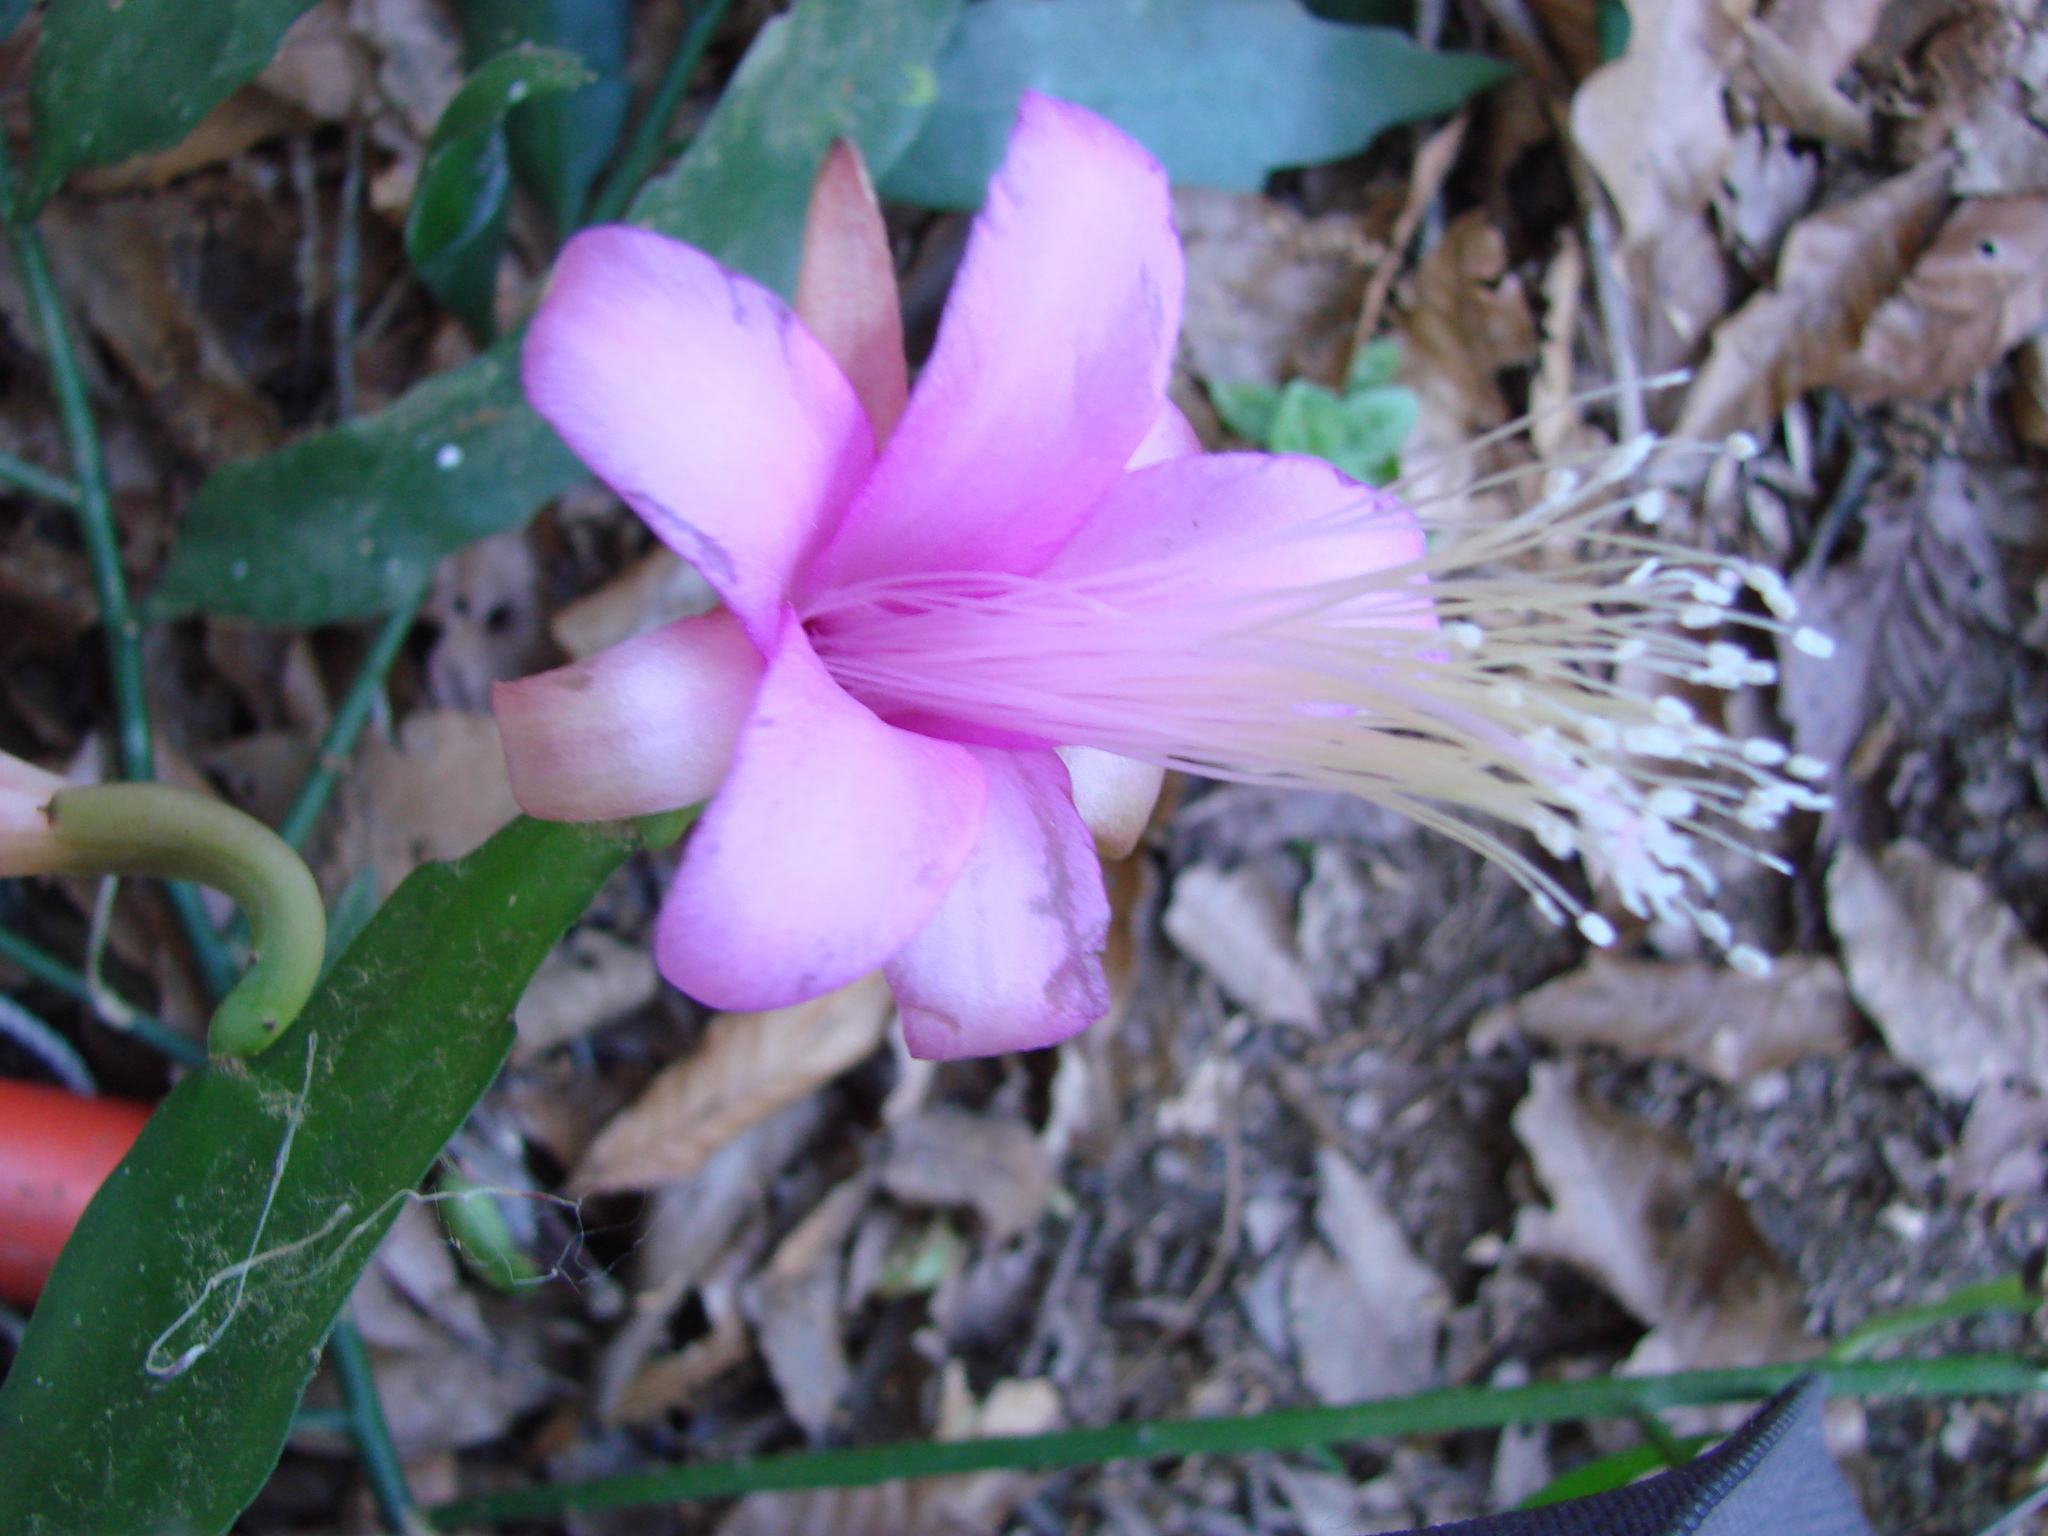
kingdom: Plantae
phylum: Tracheophyta
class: Magnoliopsida
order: Caryophyllales
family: Cactaceae
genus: Disocactus
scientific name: Disocactus nelsonii
